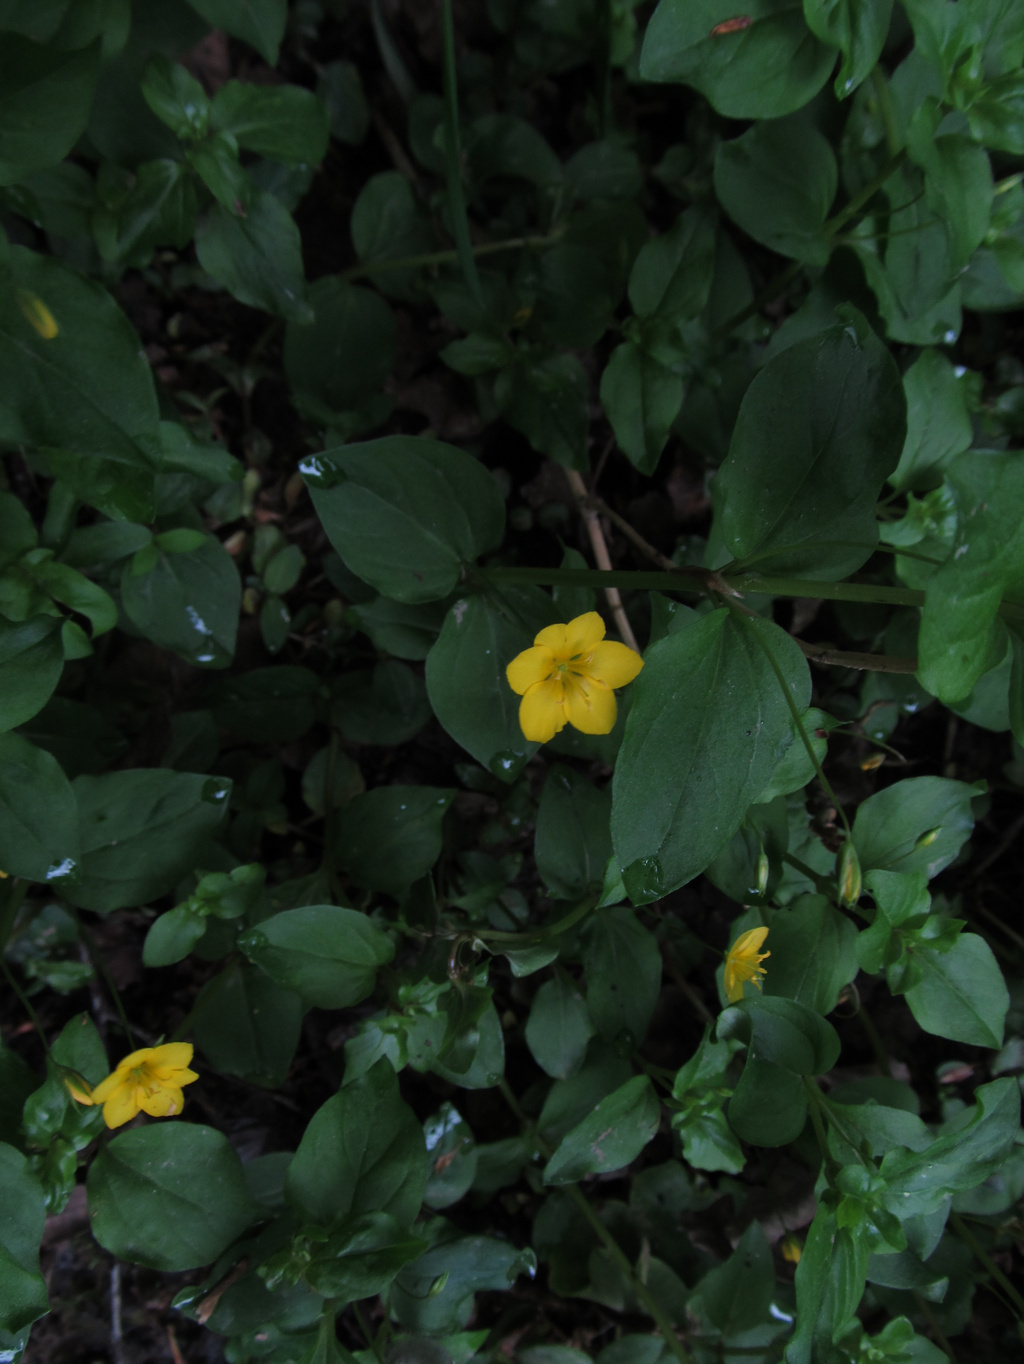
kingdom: Plantae
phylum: Tracheophyta
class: Magnoliopsida
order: Ericales
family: Primulaceae
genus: Lysimachia
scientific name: Lysimachia nemorum
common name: Yellow pimpernel
